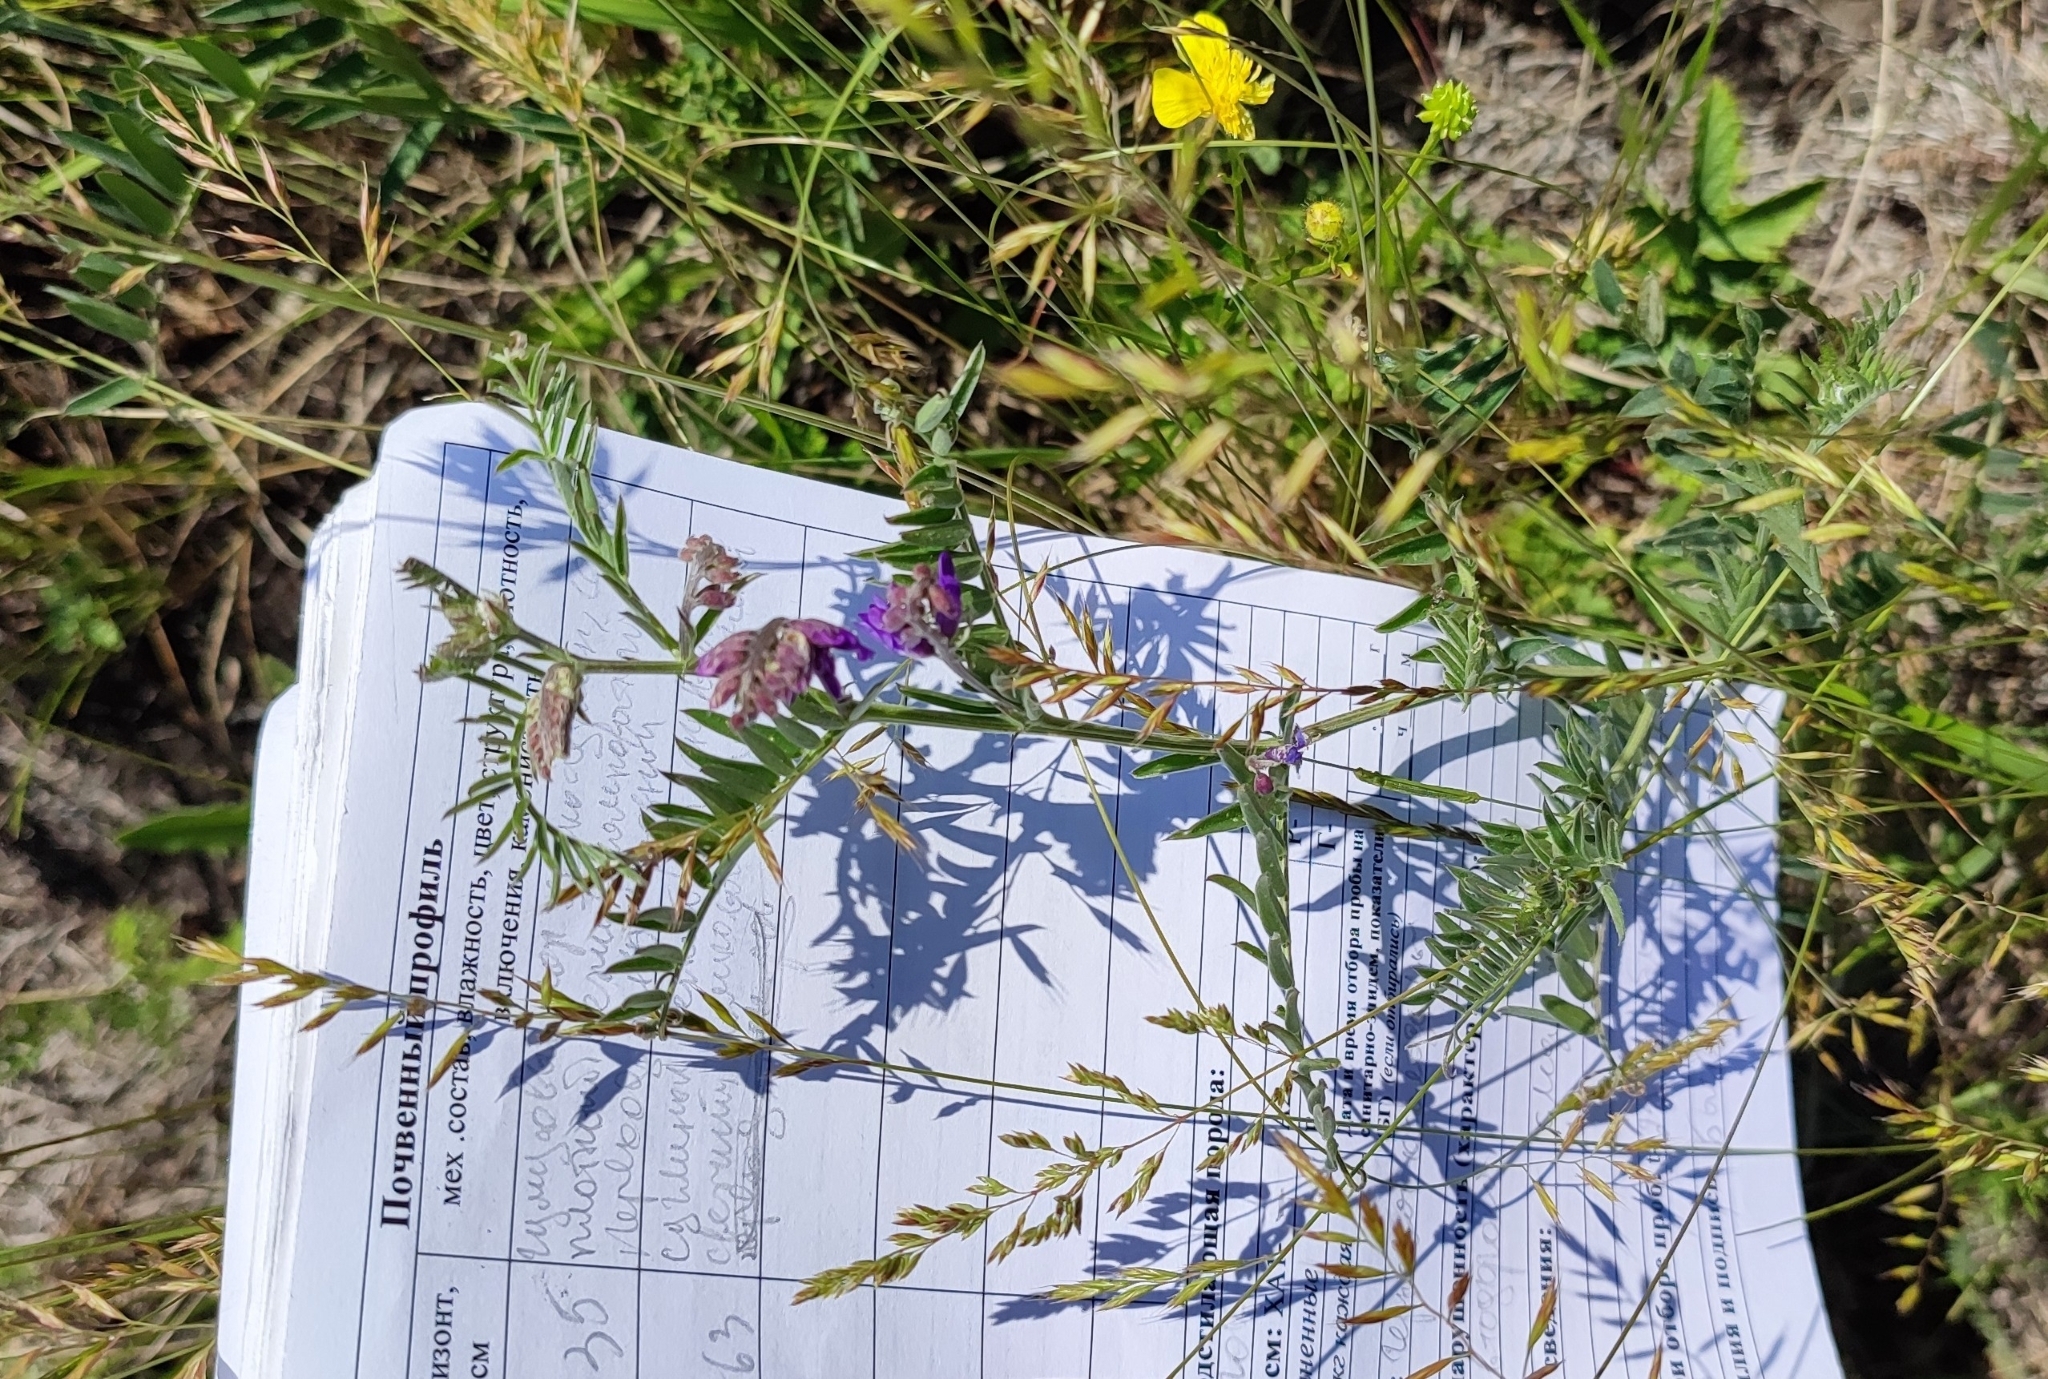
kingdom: Plantae
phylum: Tracheophyta
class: Magnoliopsida
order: Fabales
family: Fabaceae
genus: Vicia
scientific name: Vicia cracca
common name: Bird vetch
